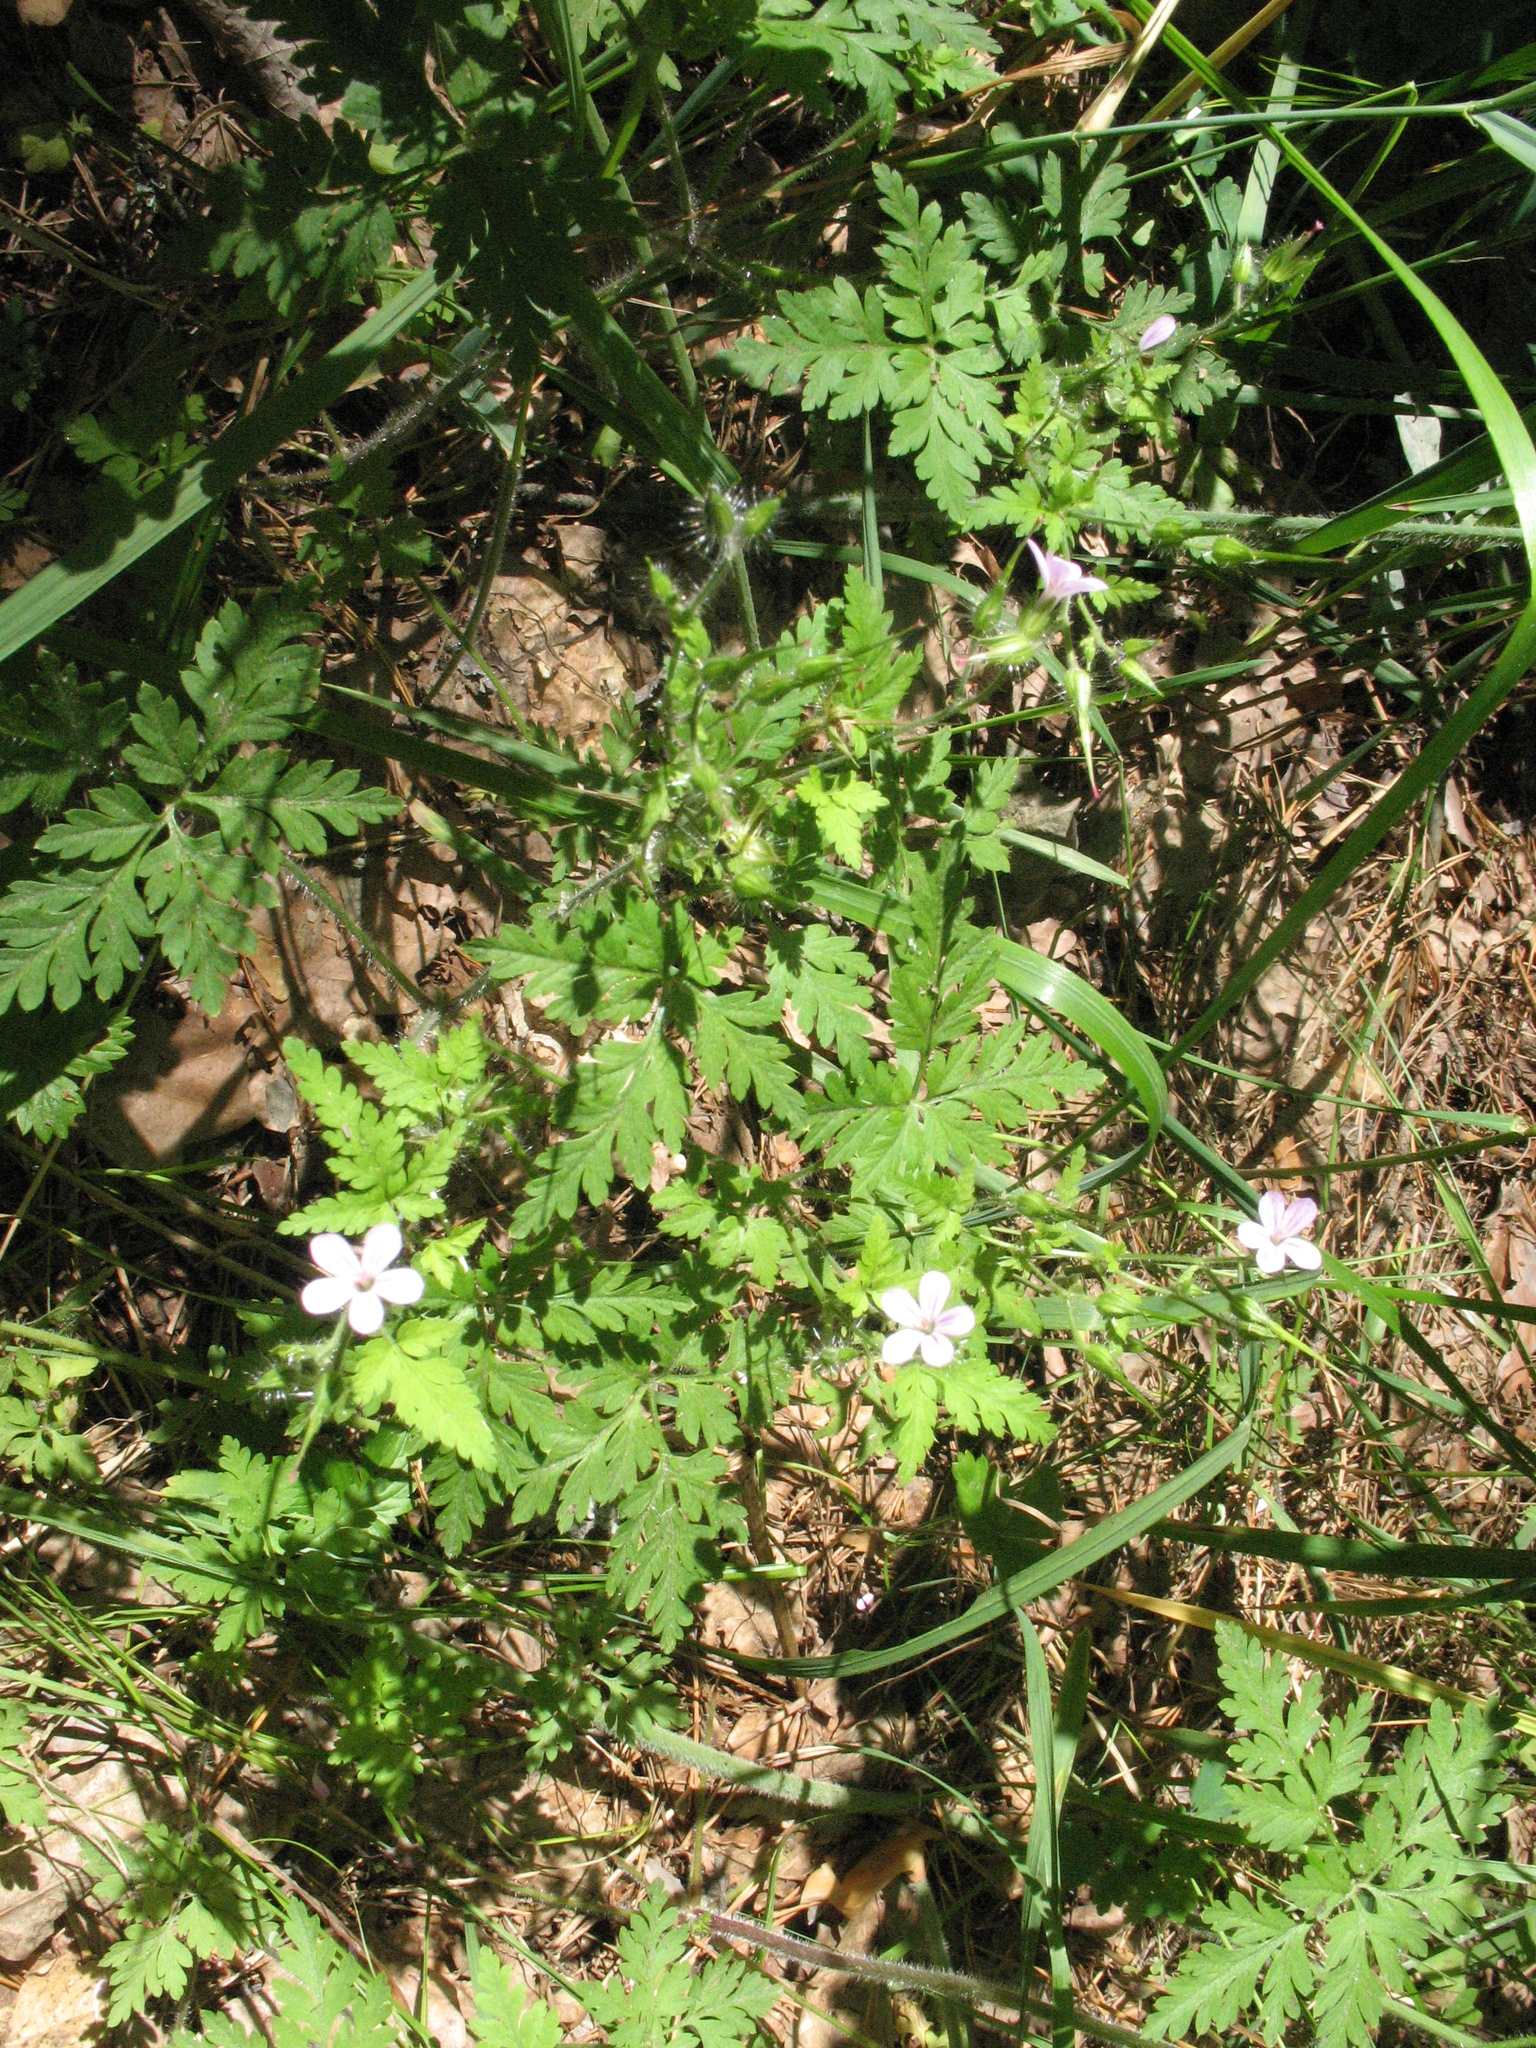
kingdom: Plantae
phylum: Tracheophyta
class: Magnoliopsida
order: Geraniales
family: Geraniaceae
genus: Geranium
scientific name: Geranium robertianum
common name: Herb-robert
